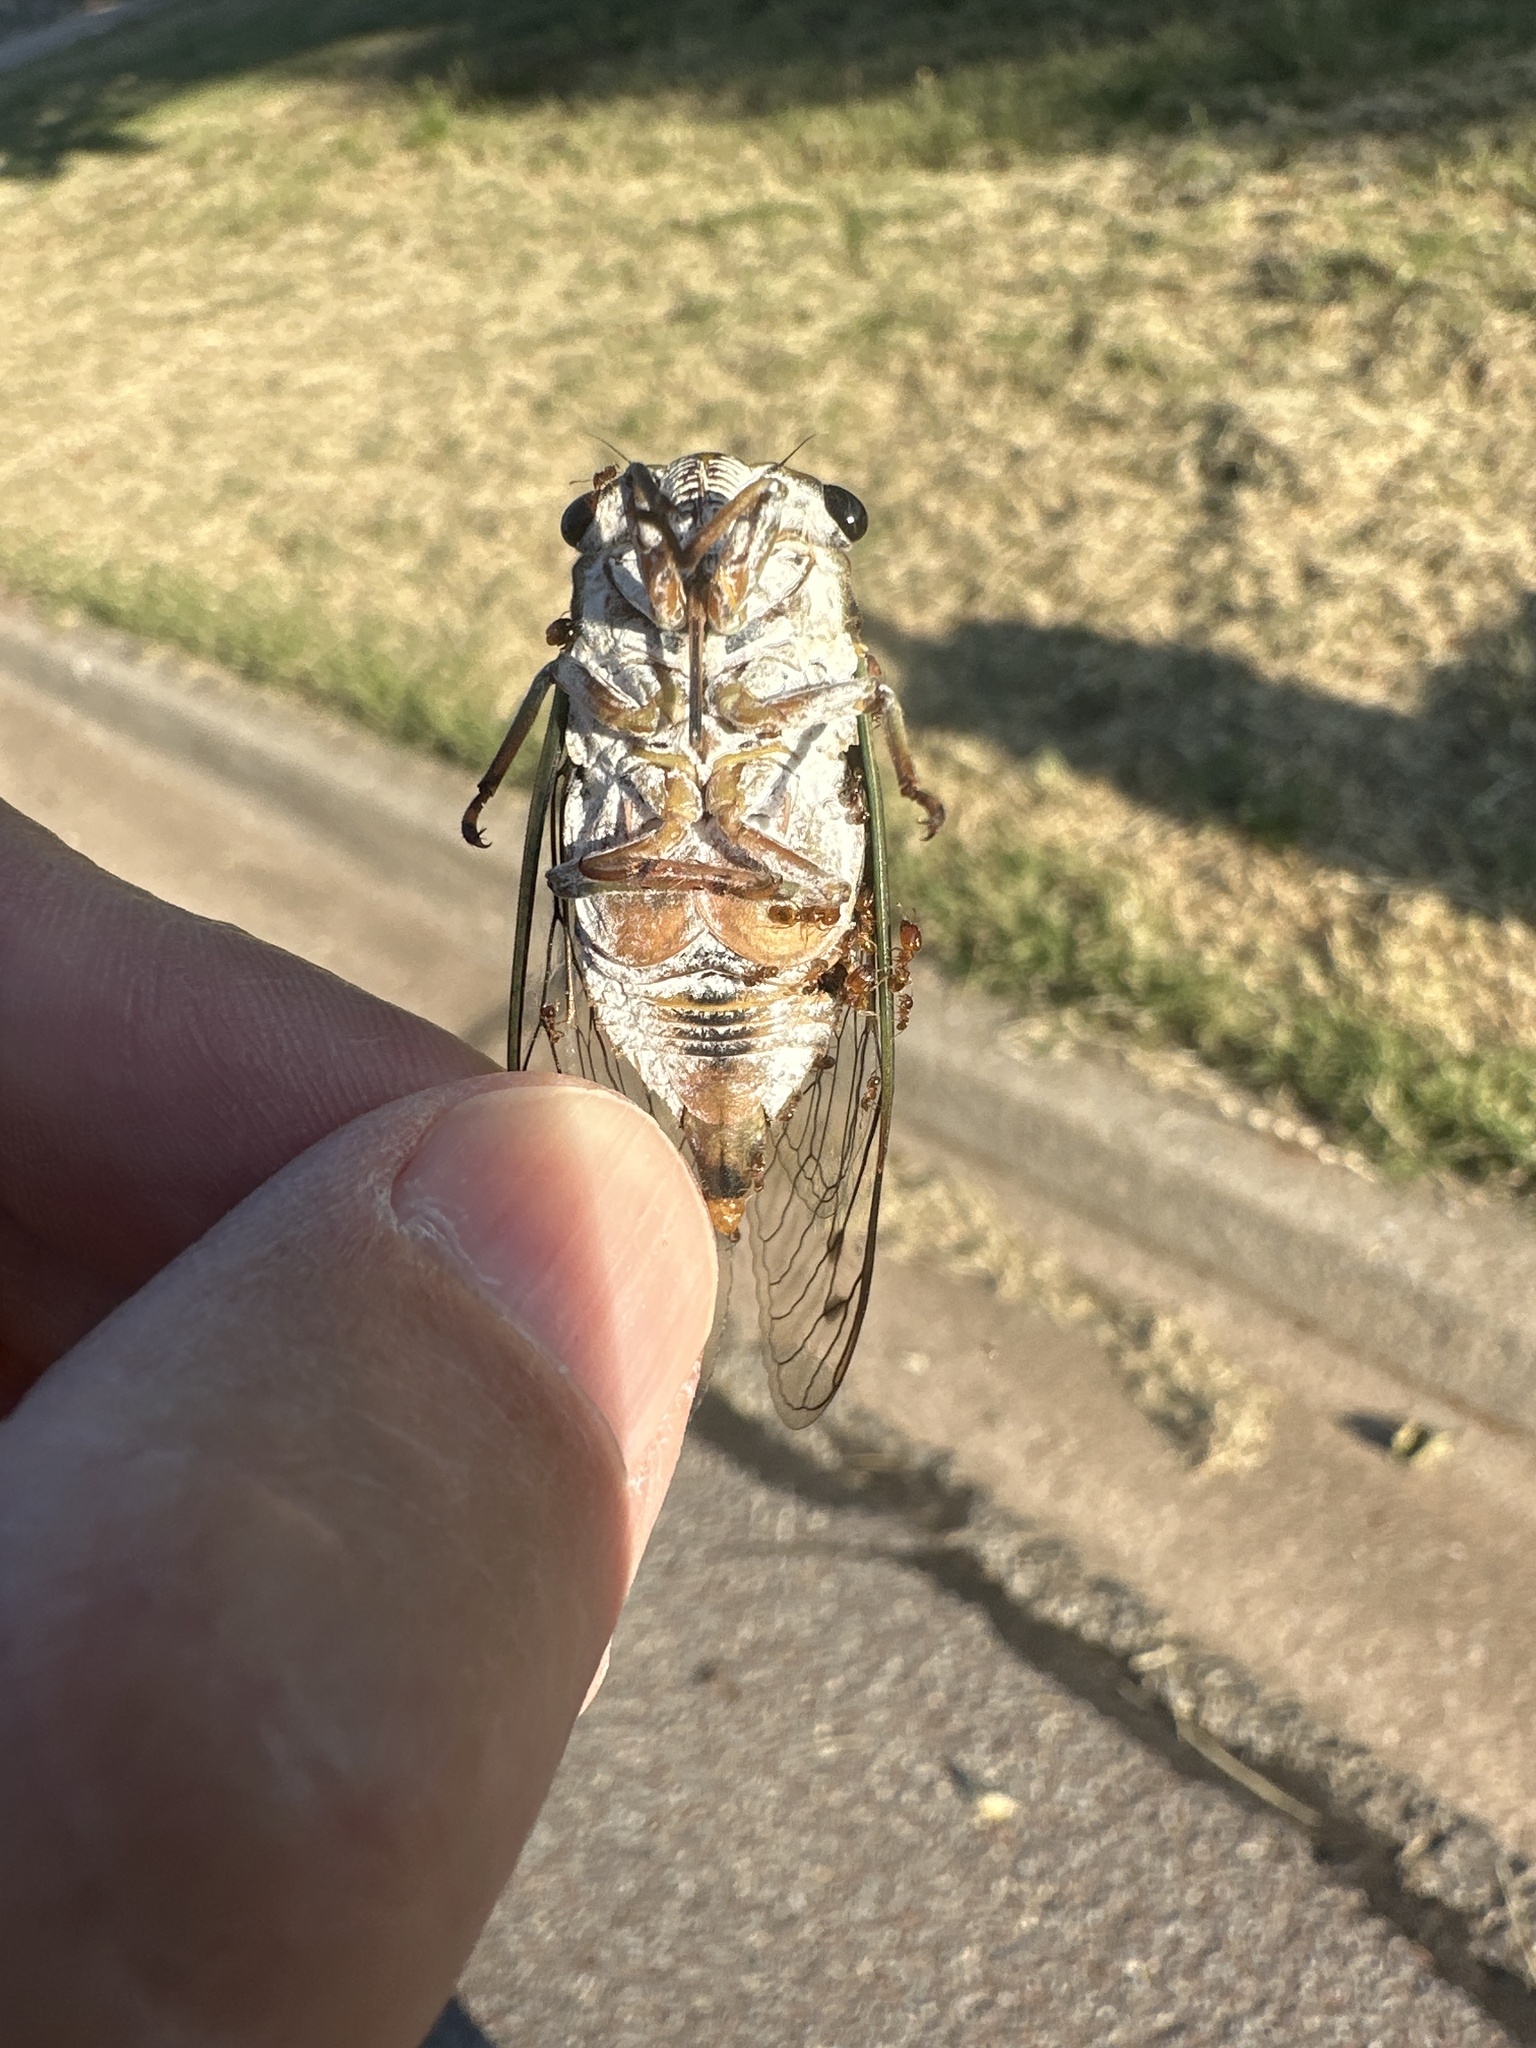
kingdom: Animalia
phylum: Arthropoda
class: Insecta
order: Hemiptera
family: Cicadidae
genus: Neotibicen
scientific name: Neotibicen pruinosus
